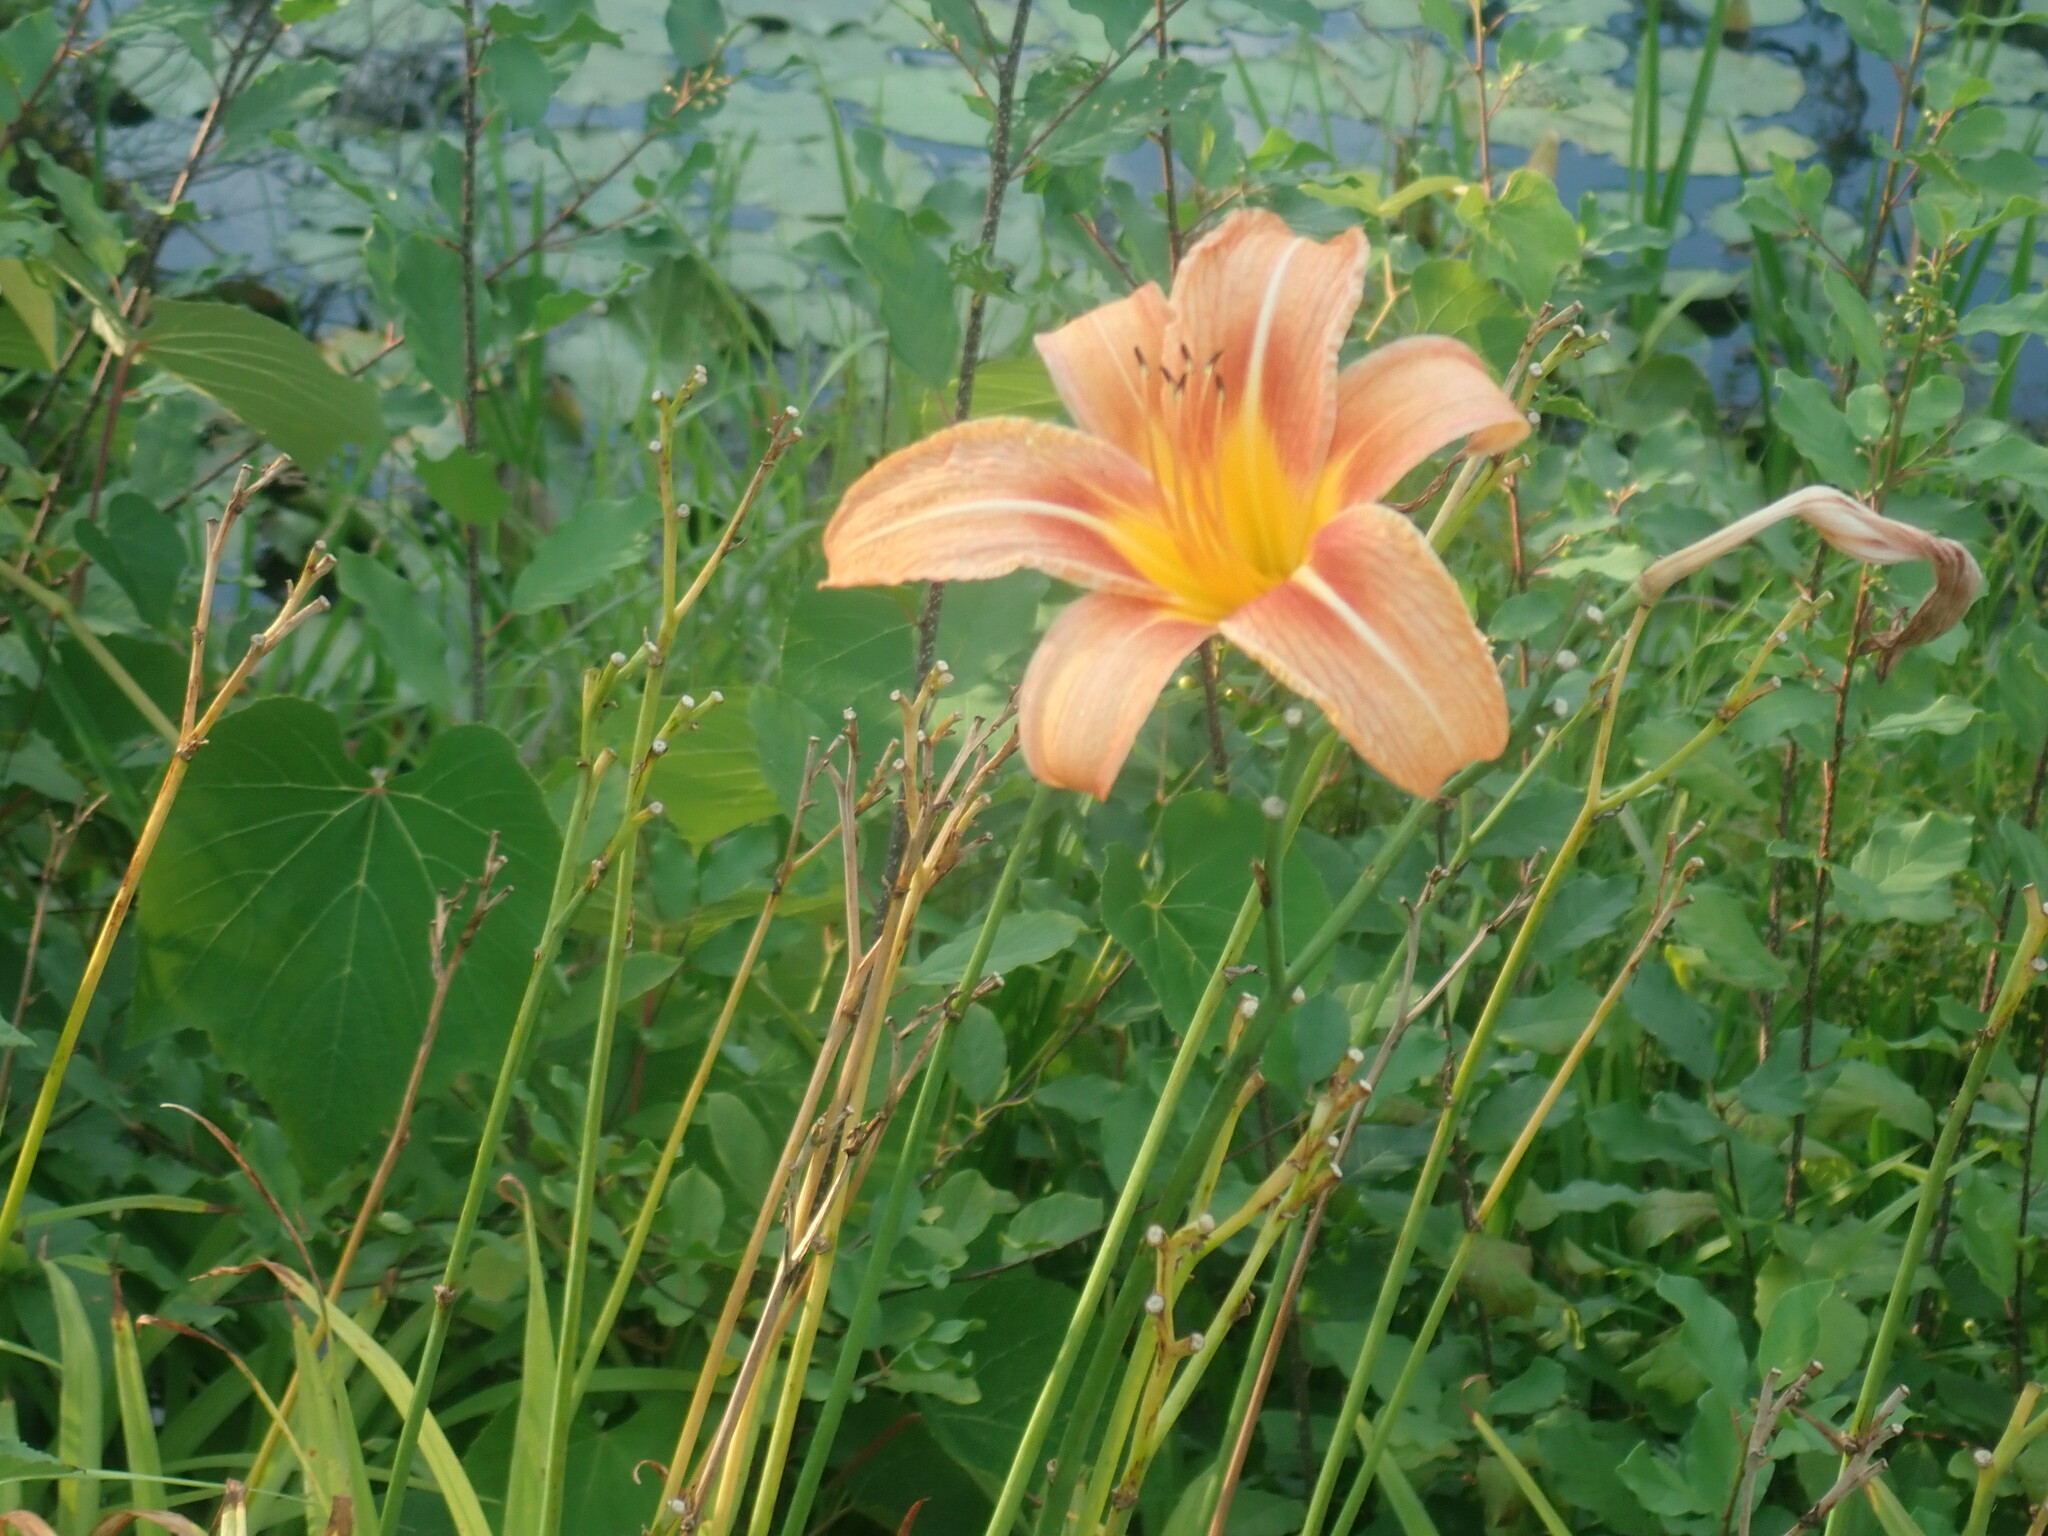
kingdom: Plantae
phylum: Tracheophyta
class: Liliopsida
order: Asparagales
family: Asphodelaceae
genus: Hemerocallis
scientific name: Hemerocallis fulva
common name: Orange day-lily
